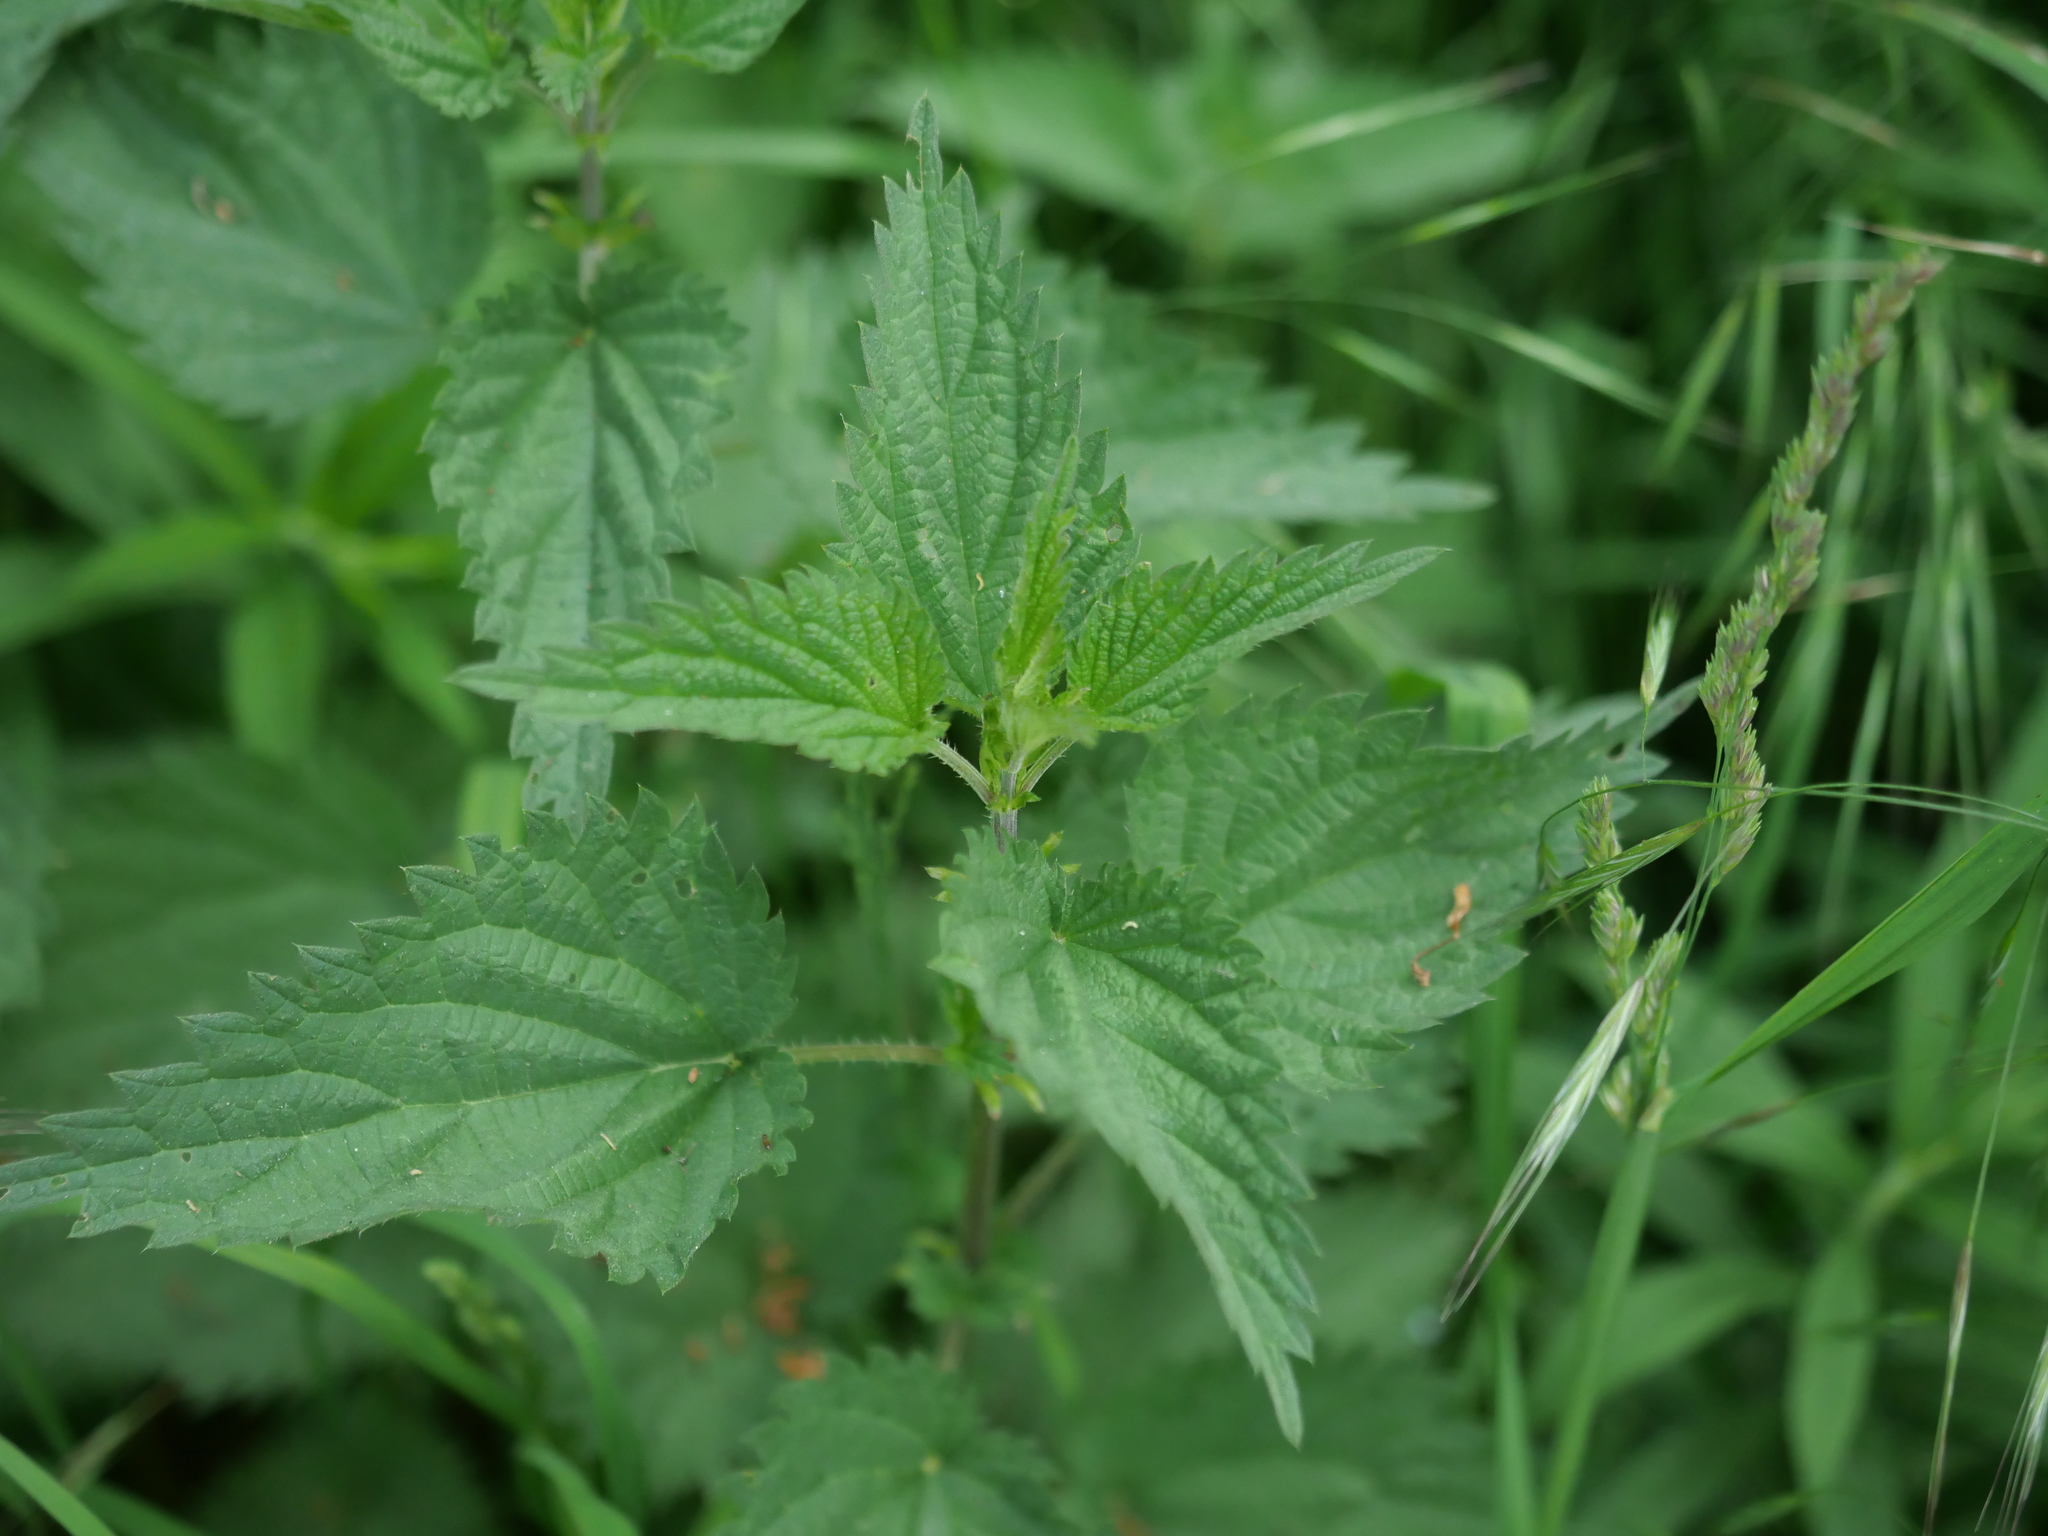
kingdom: Plantae
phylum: Tracheophyta
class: Magnoliopsida
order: Rosales
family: Urticaceae
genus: Urtica
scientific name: Urtica dioica
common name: Common nettle
